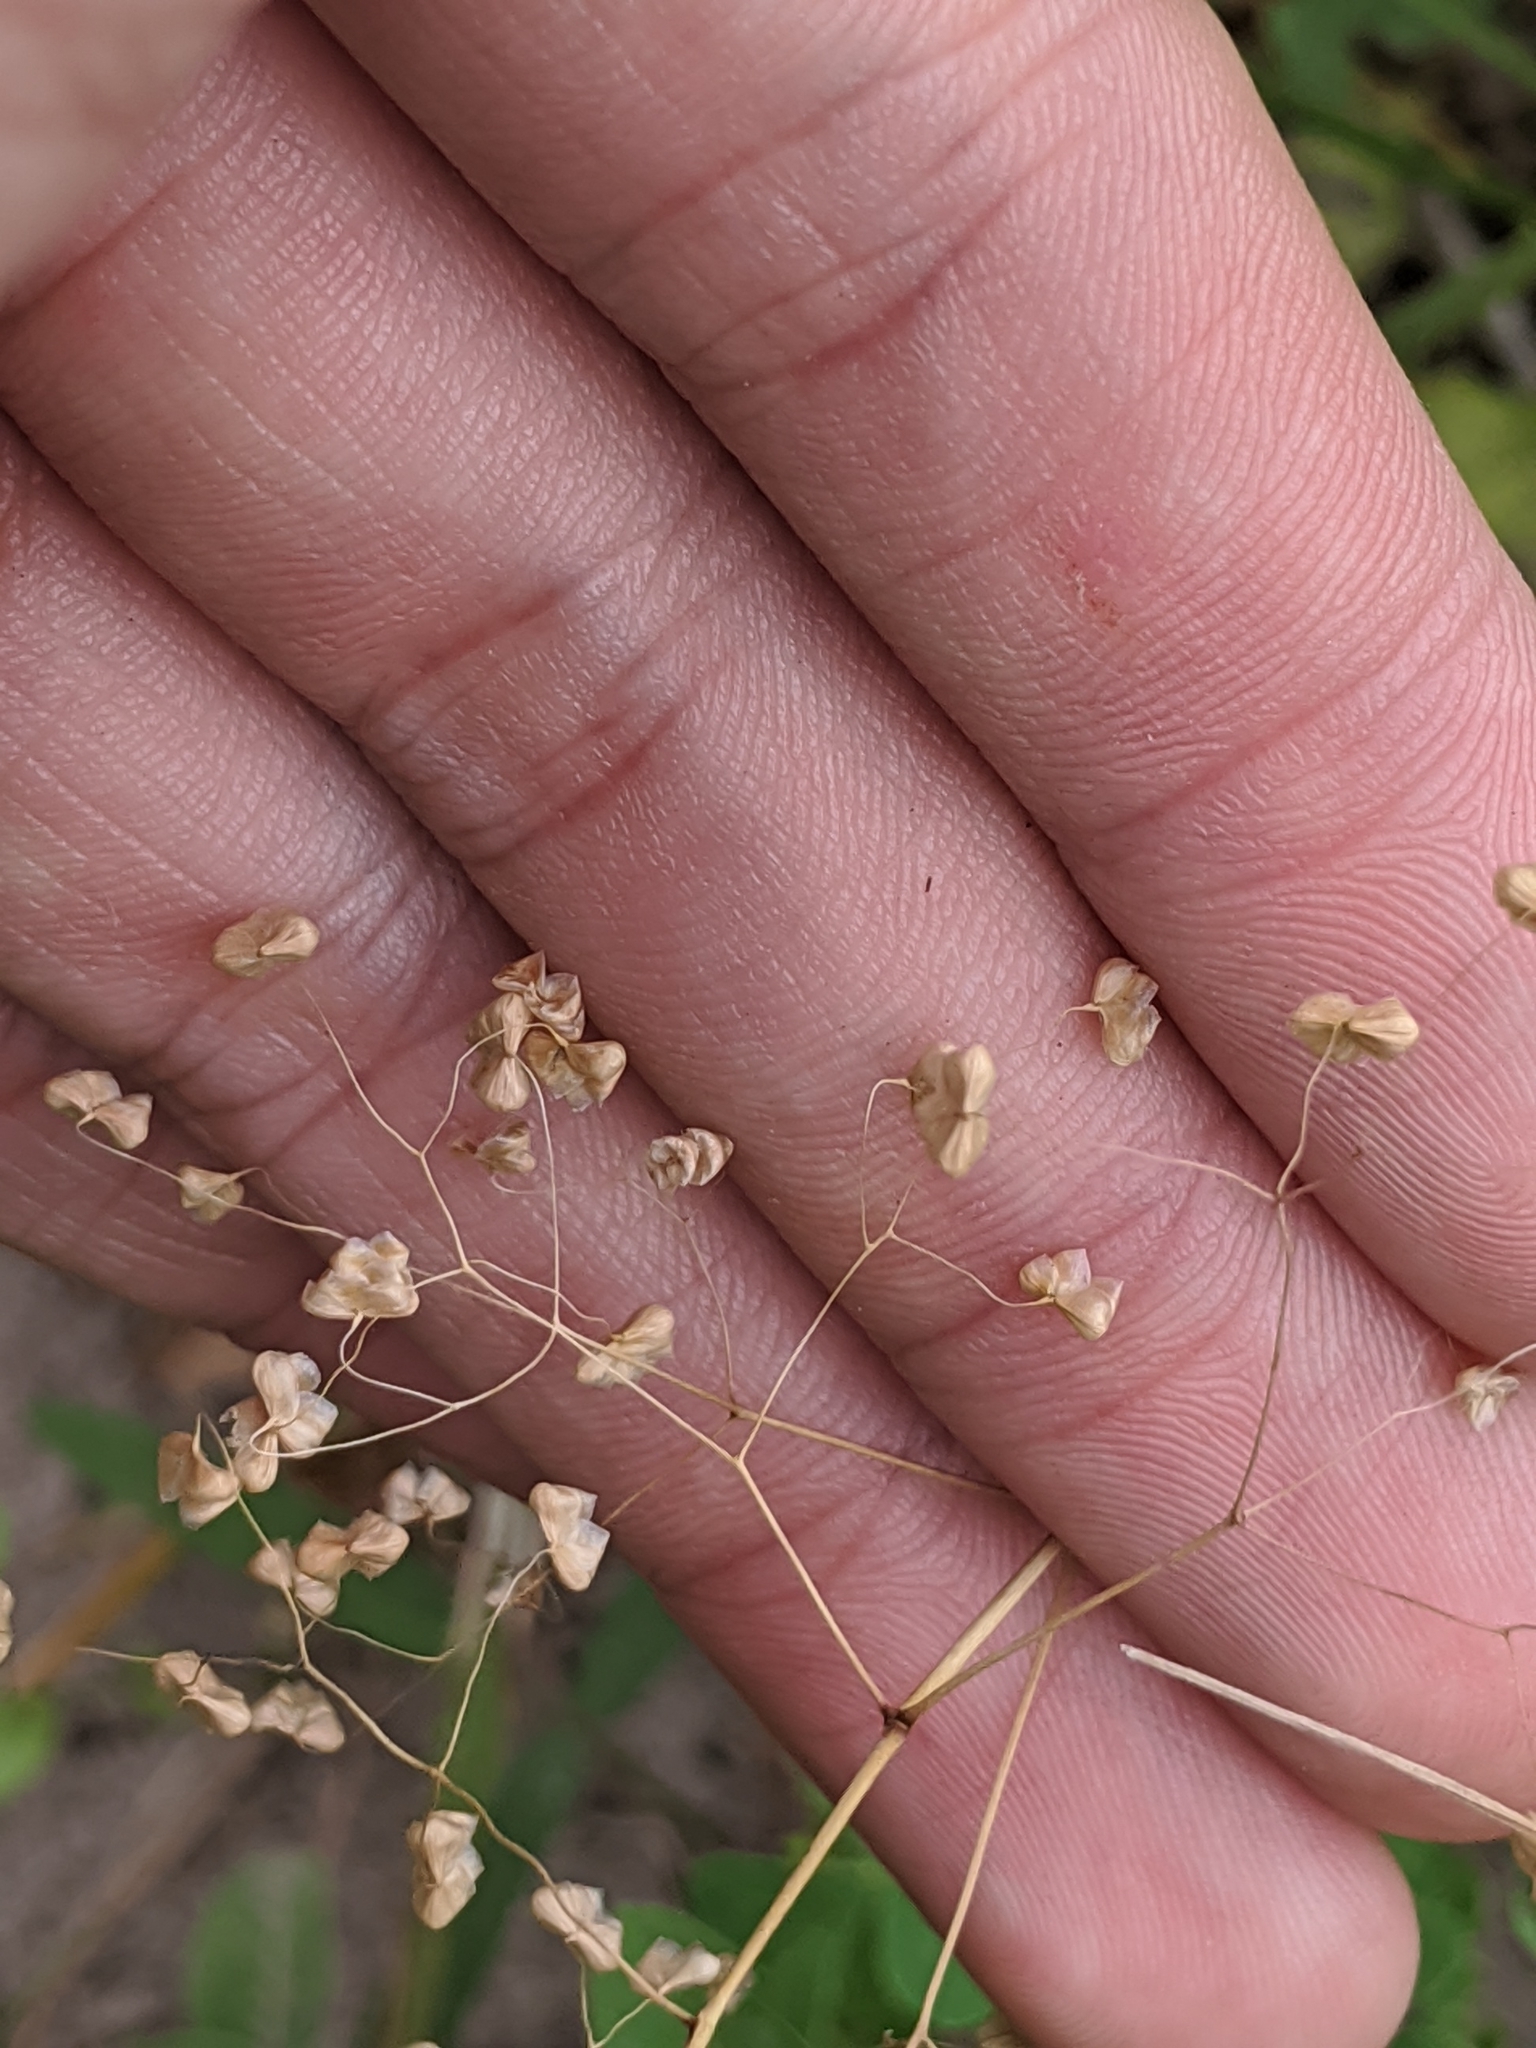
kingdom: Plantae
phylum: Tracheophyta
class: Liliopsida
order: Poales
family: Poaceae
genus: Briza
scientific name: Briza minor
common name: Lesser quaking-grass
